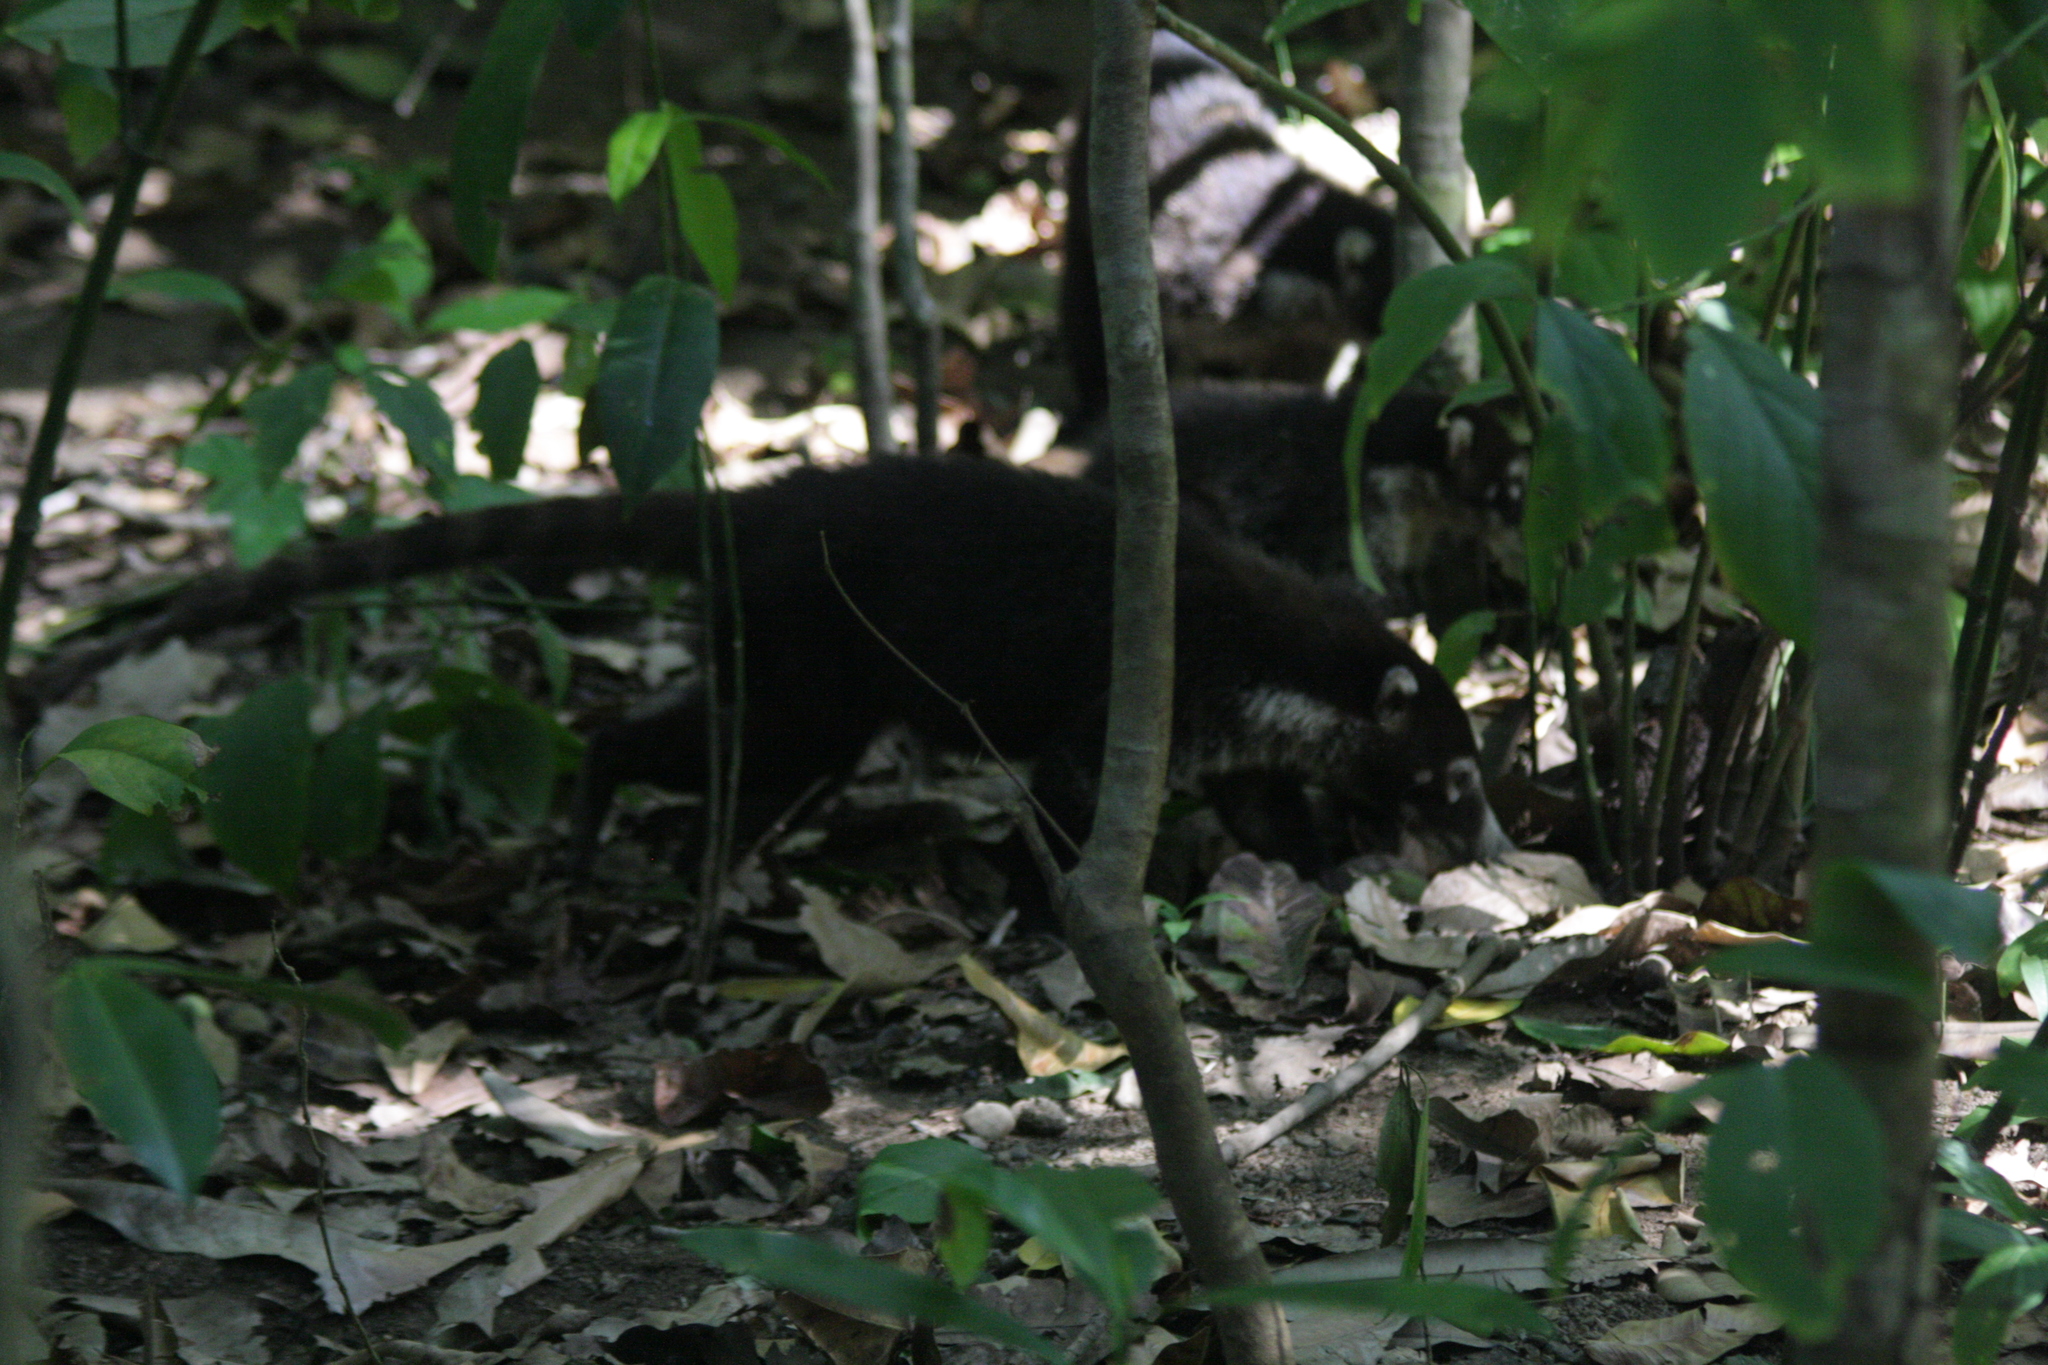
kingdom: Animalia
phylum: Chordata
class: Mammalia
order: Carnivora
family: Procyonidae
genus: Nasua
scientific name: Nasua narica
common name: White-nosed coati
